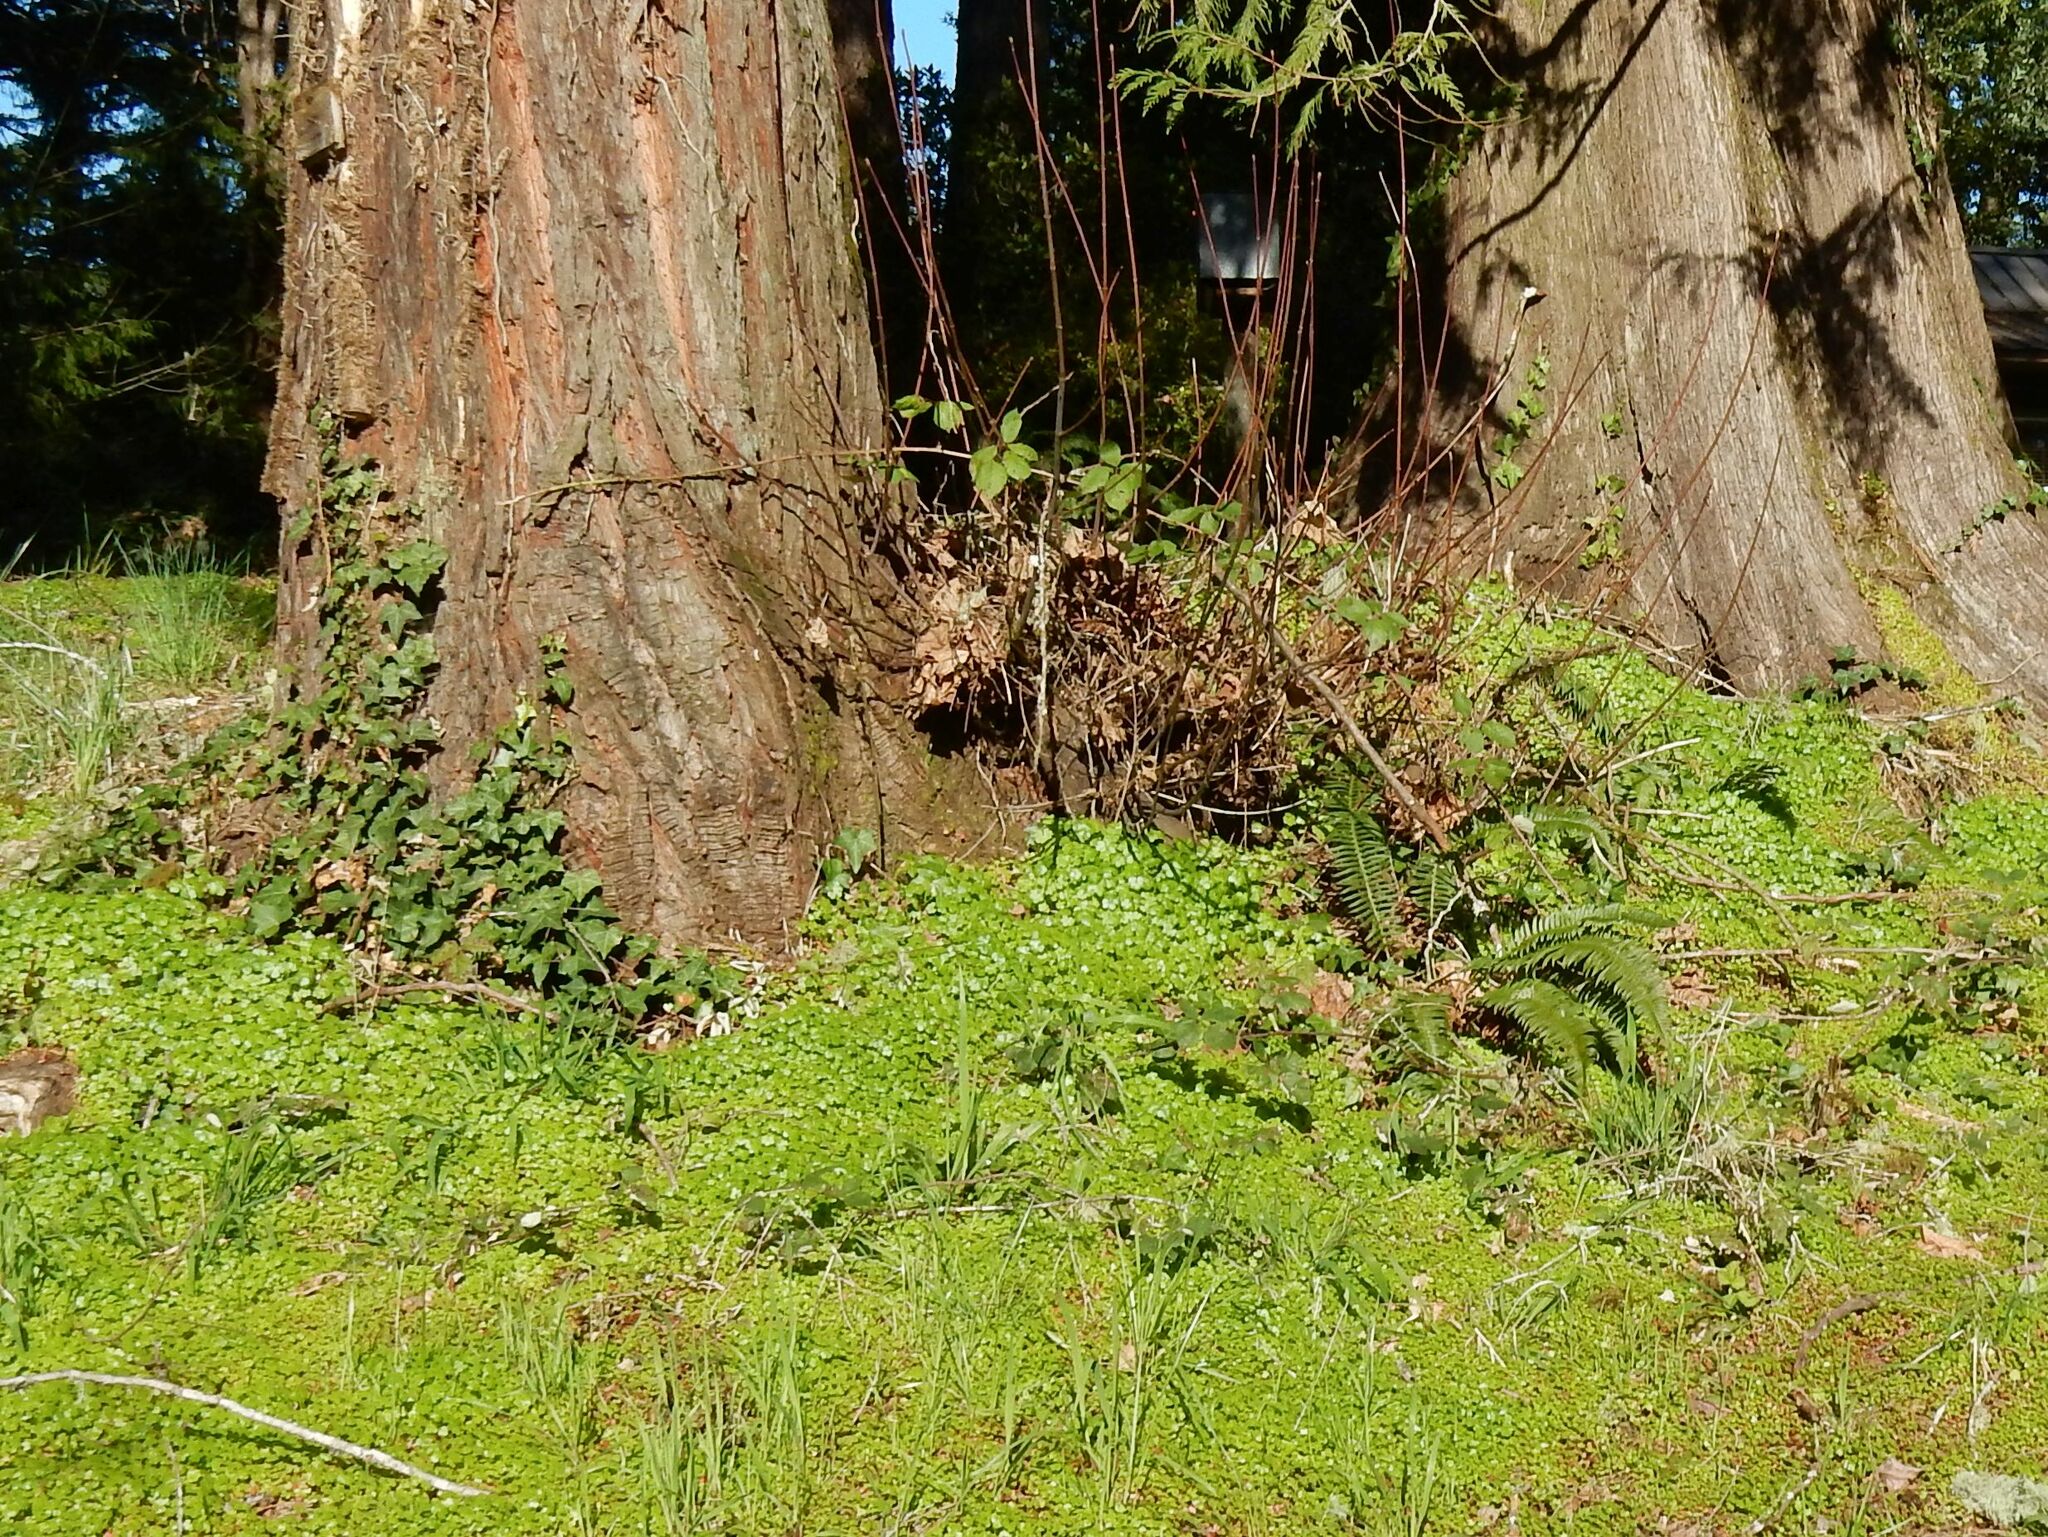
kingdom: Plantae
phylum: Tracheophyta
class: Magnoliopsida
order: Geraniales
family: Geraniaceae
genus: Geranium
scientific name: Geranium lucidum
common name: Shining crane's-bill
